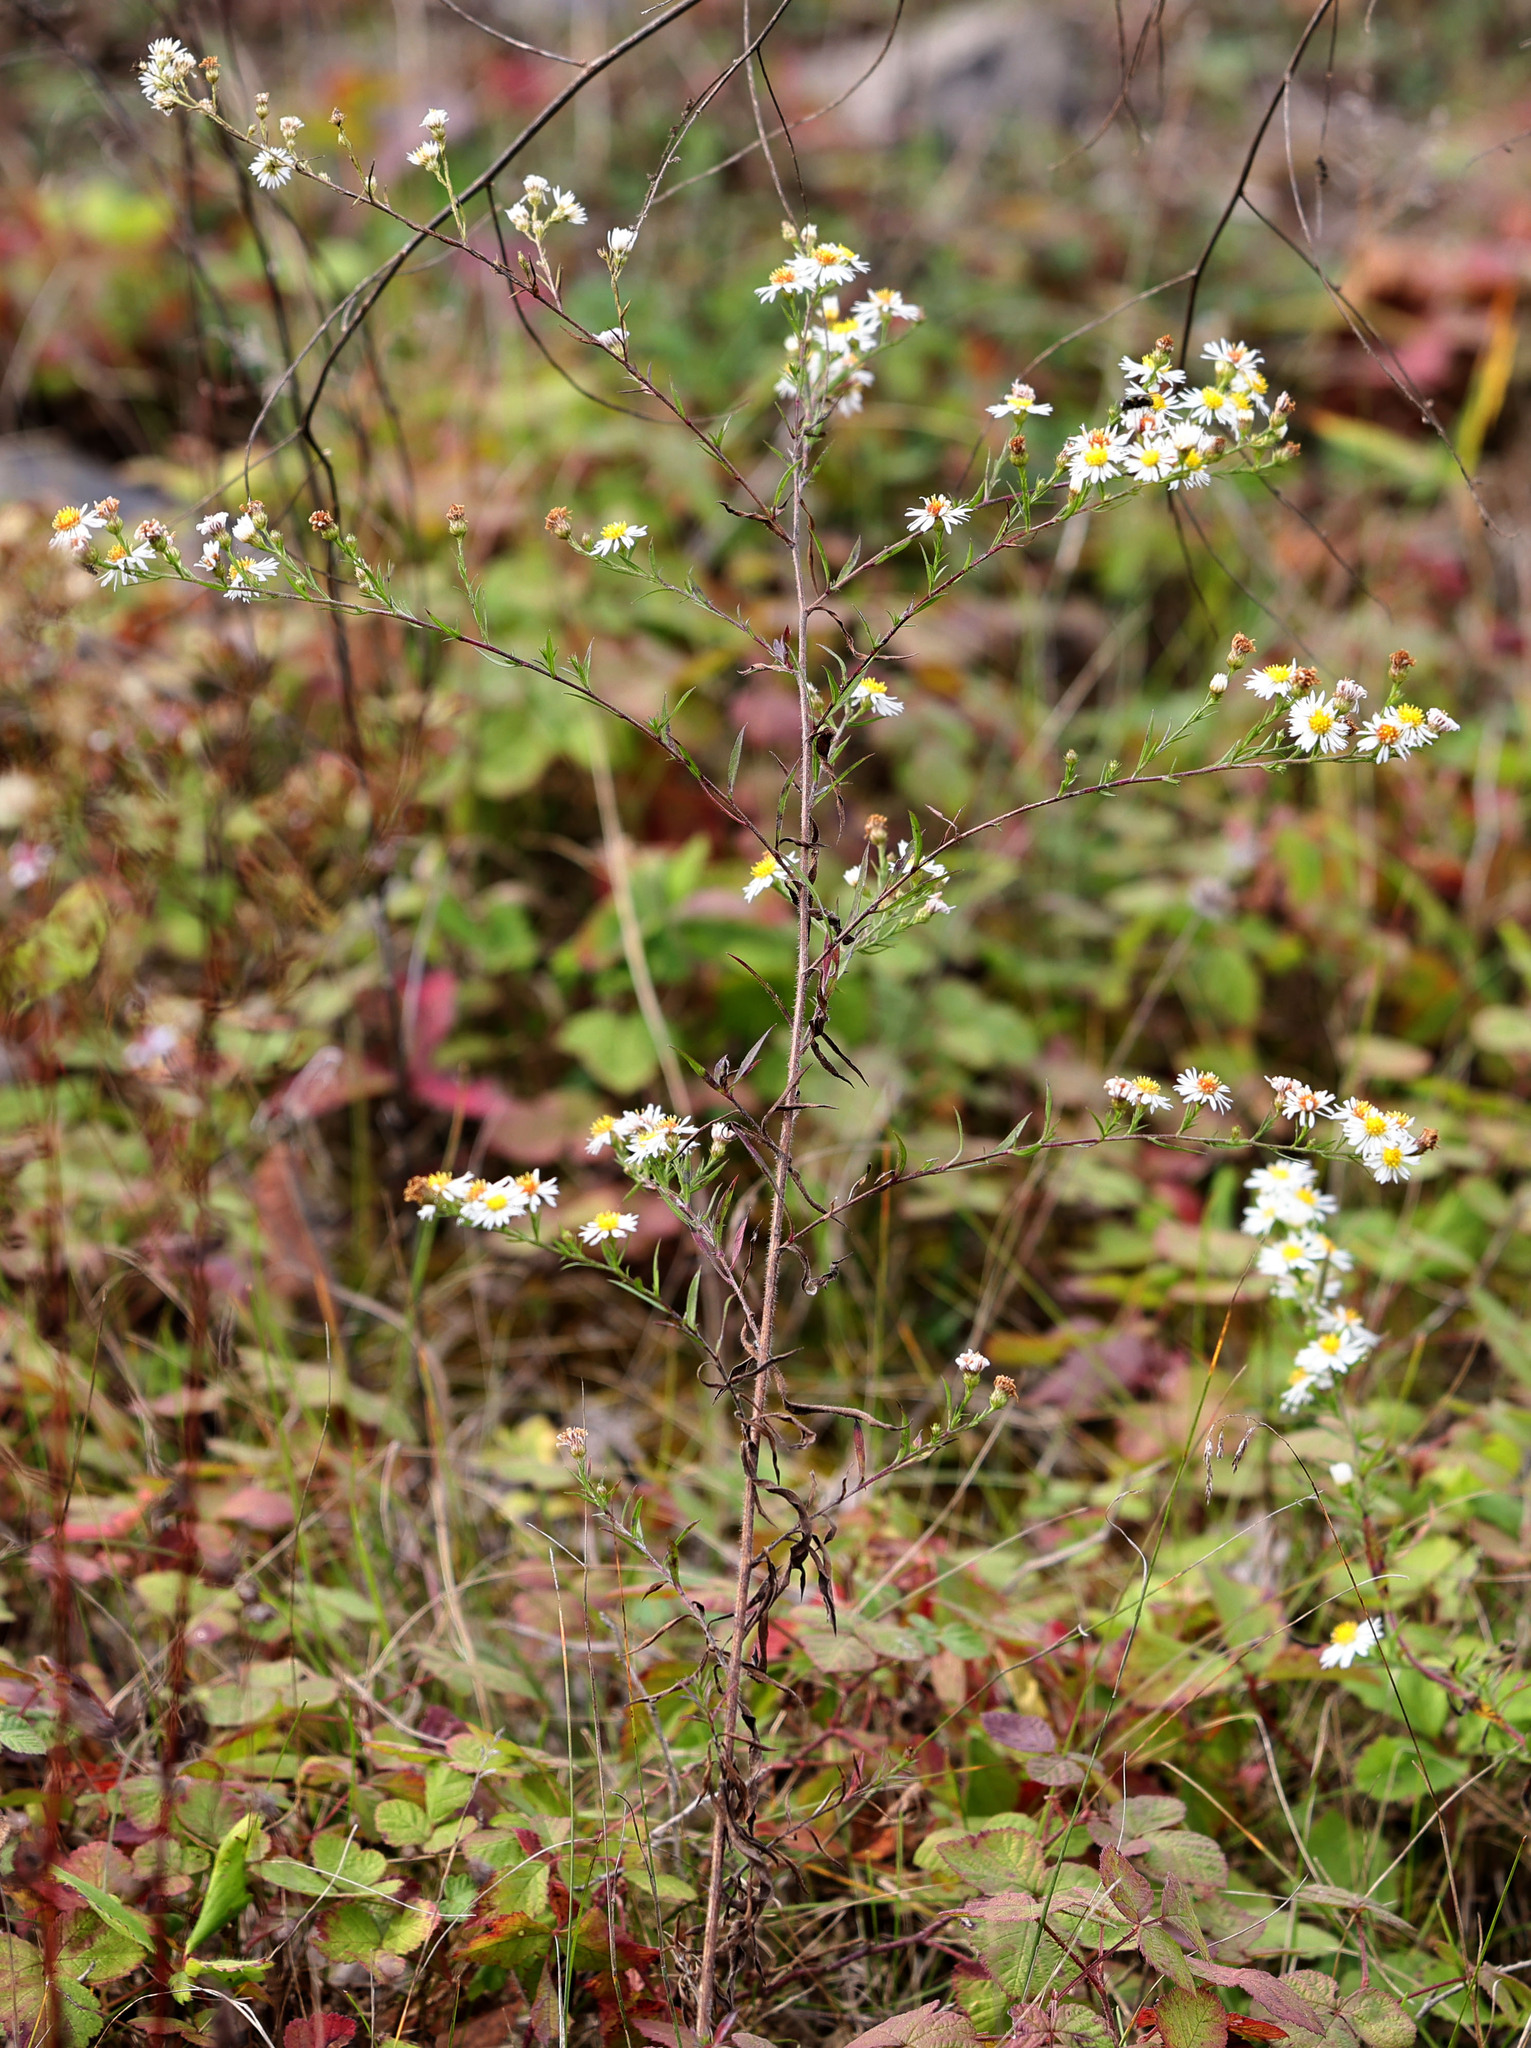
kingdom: Plantae
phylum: Tracheophyta
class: Magnoliopsida
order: Asterales
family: Asteraceae
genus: Symphyotrichum
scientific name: Symphyotrichum pilosum
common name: Awl aster
